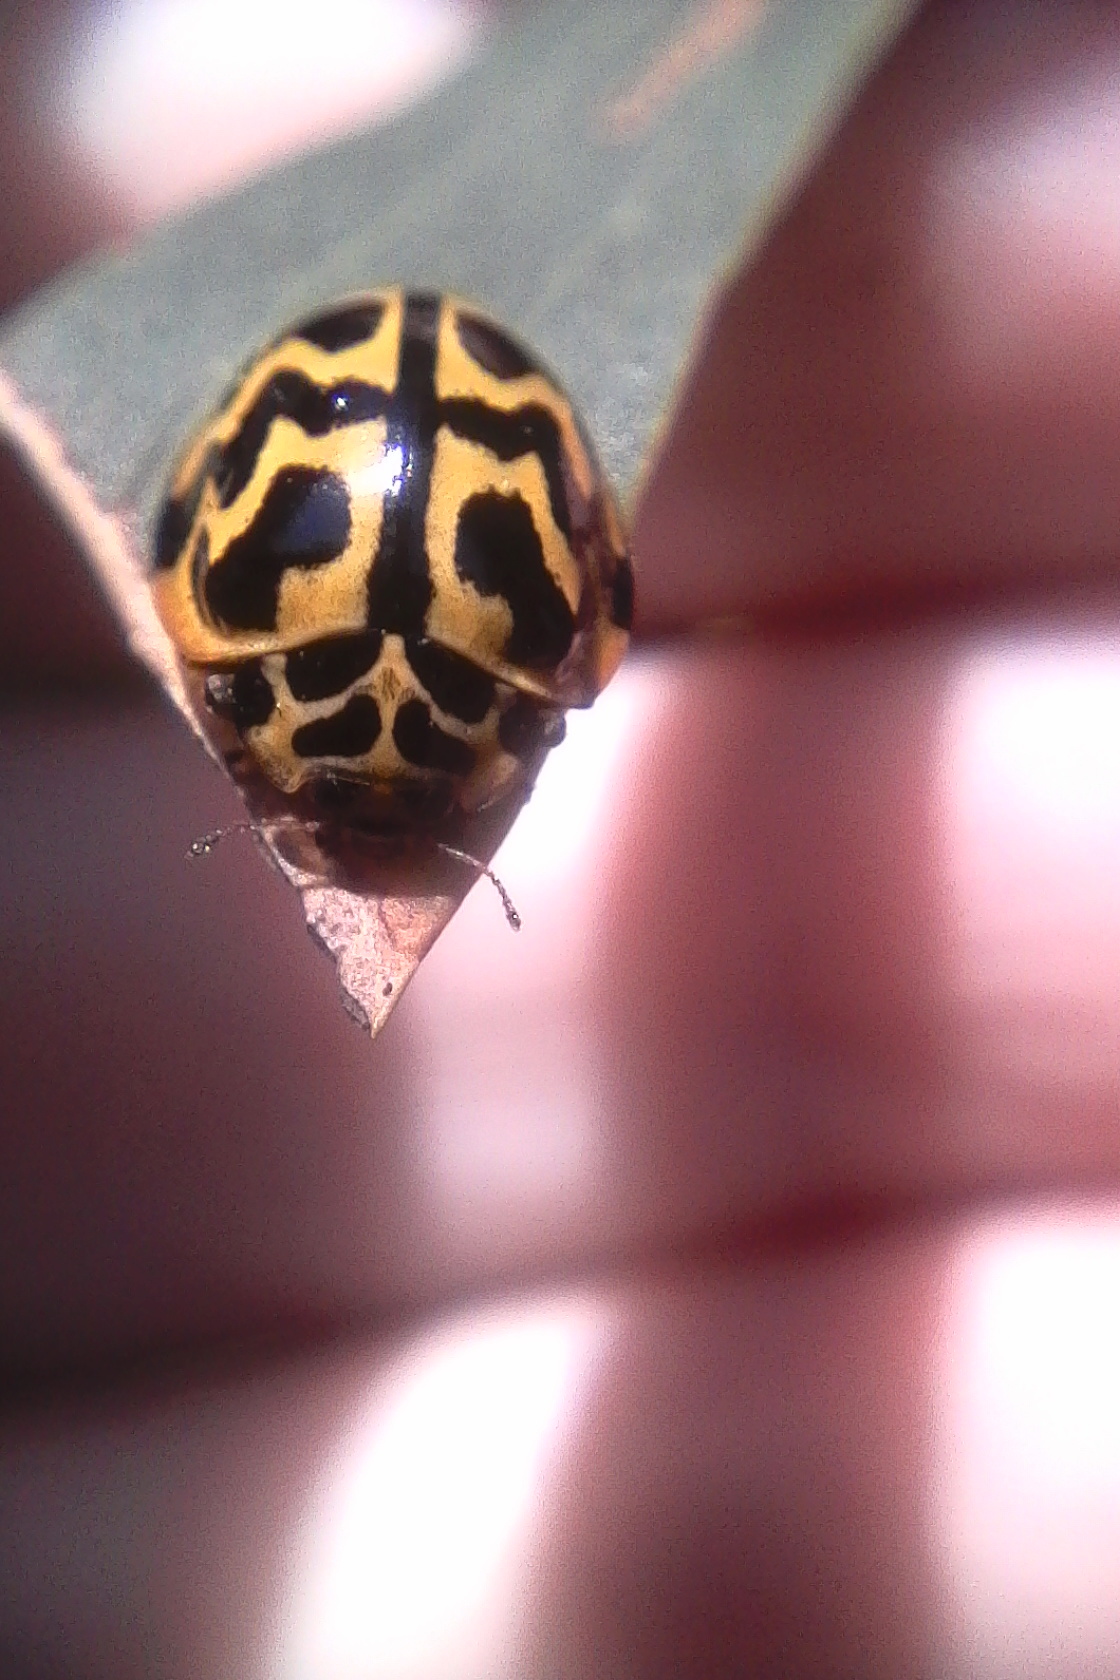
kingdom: Animalia
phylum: Arthropoda
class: Insecta
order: Coleoptera
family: Coccinellidae
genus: Cleobora
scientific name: Cleobora
